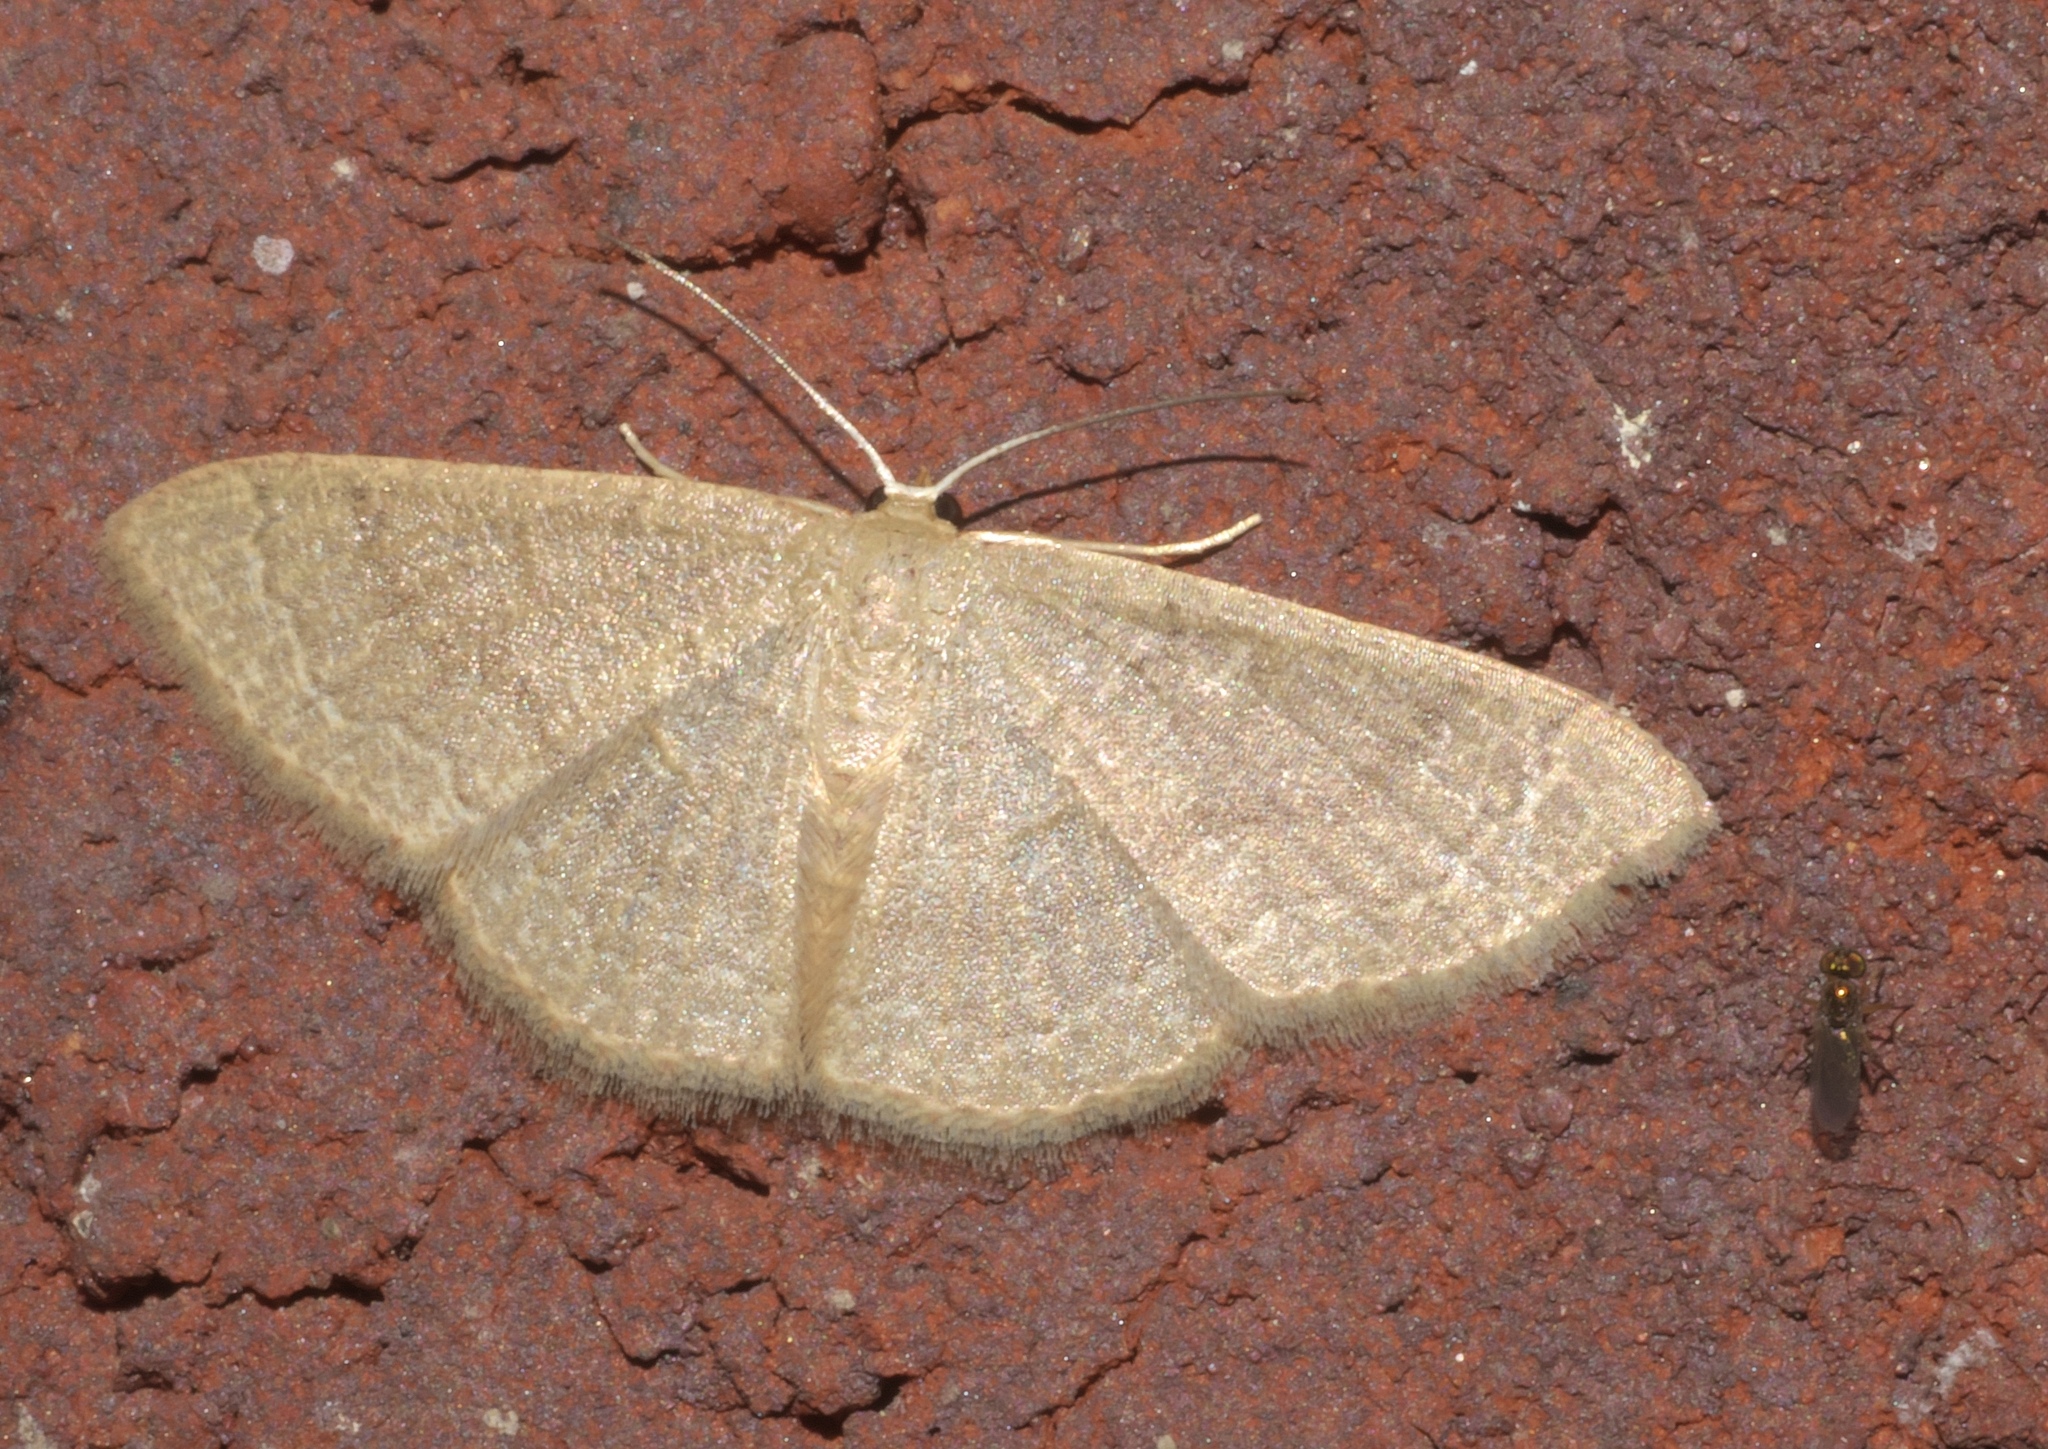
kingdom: Animalia
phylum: Arthropoda
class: Insecta
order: Lepidoptera
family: Geometridae
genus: Pleuroprucha
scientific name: Pleuroprucha insulsaria
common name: Common tan wave
